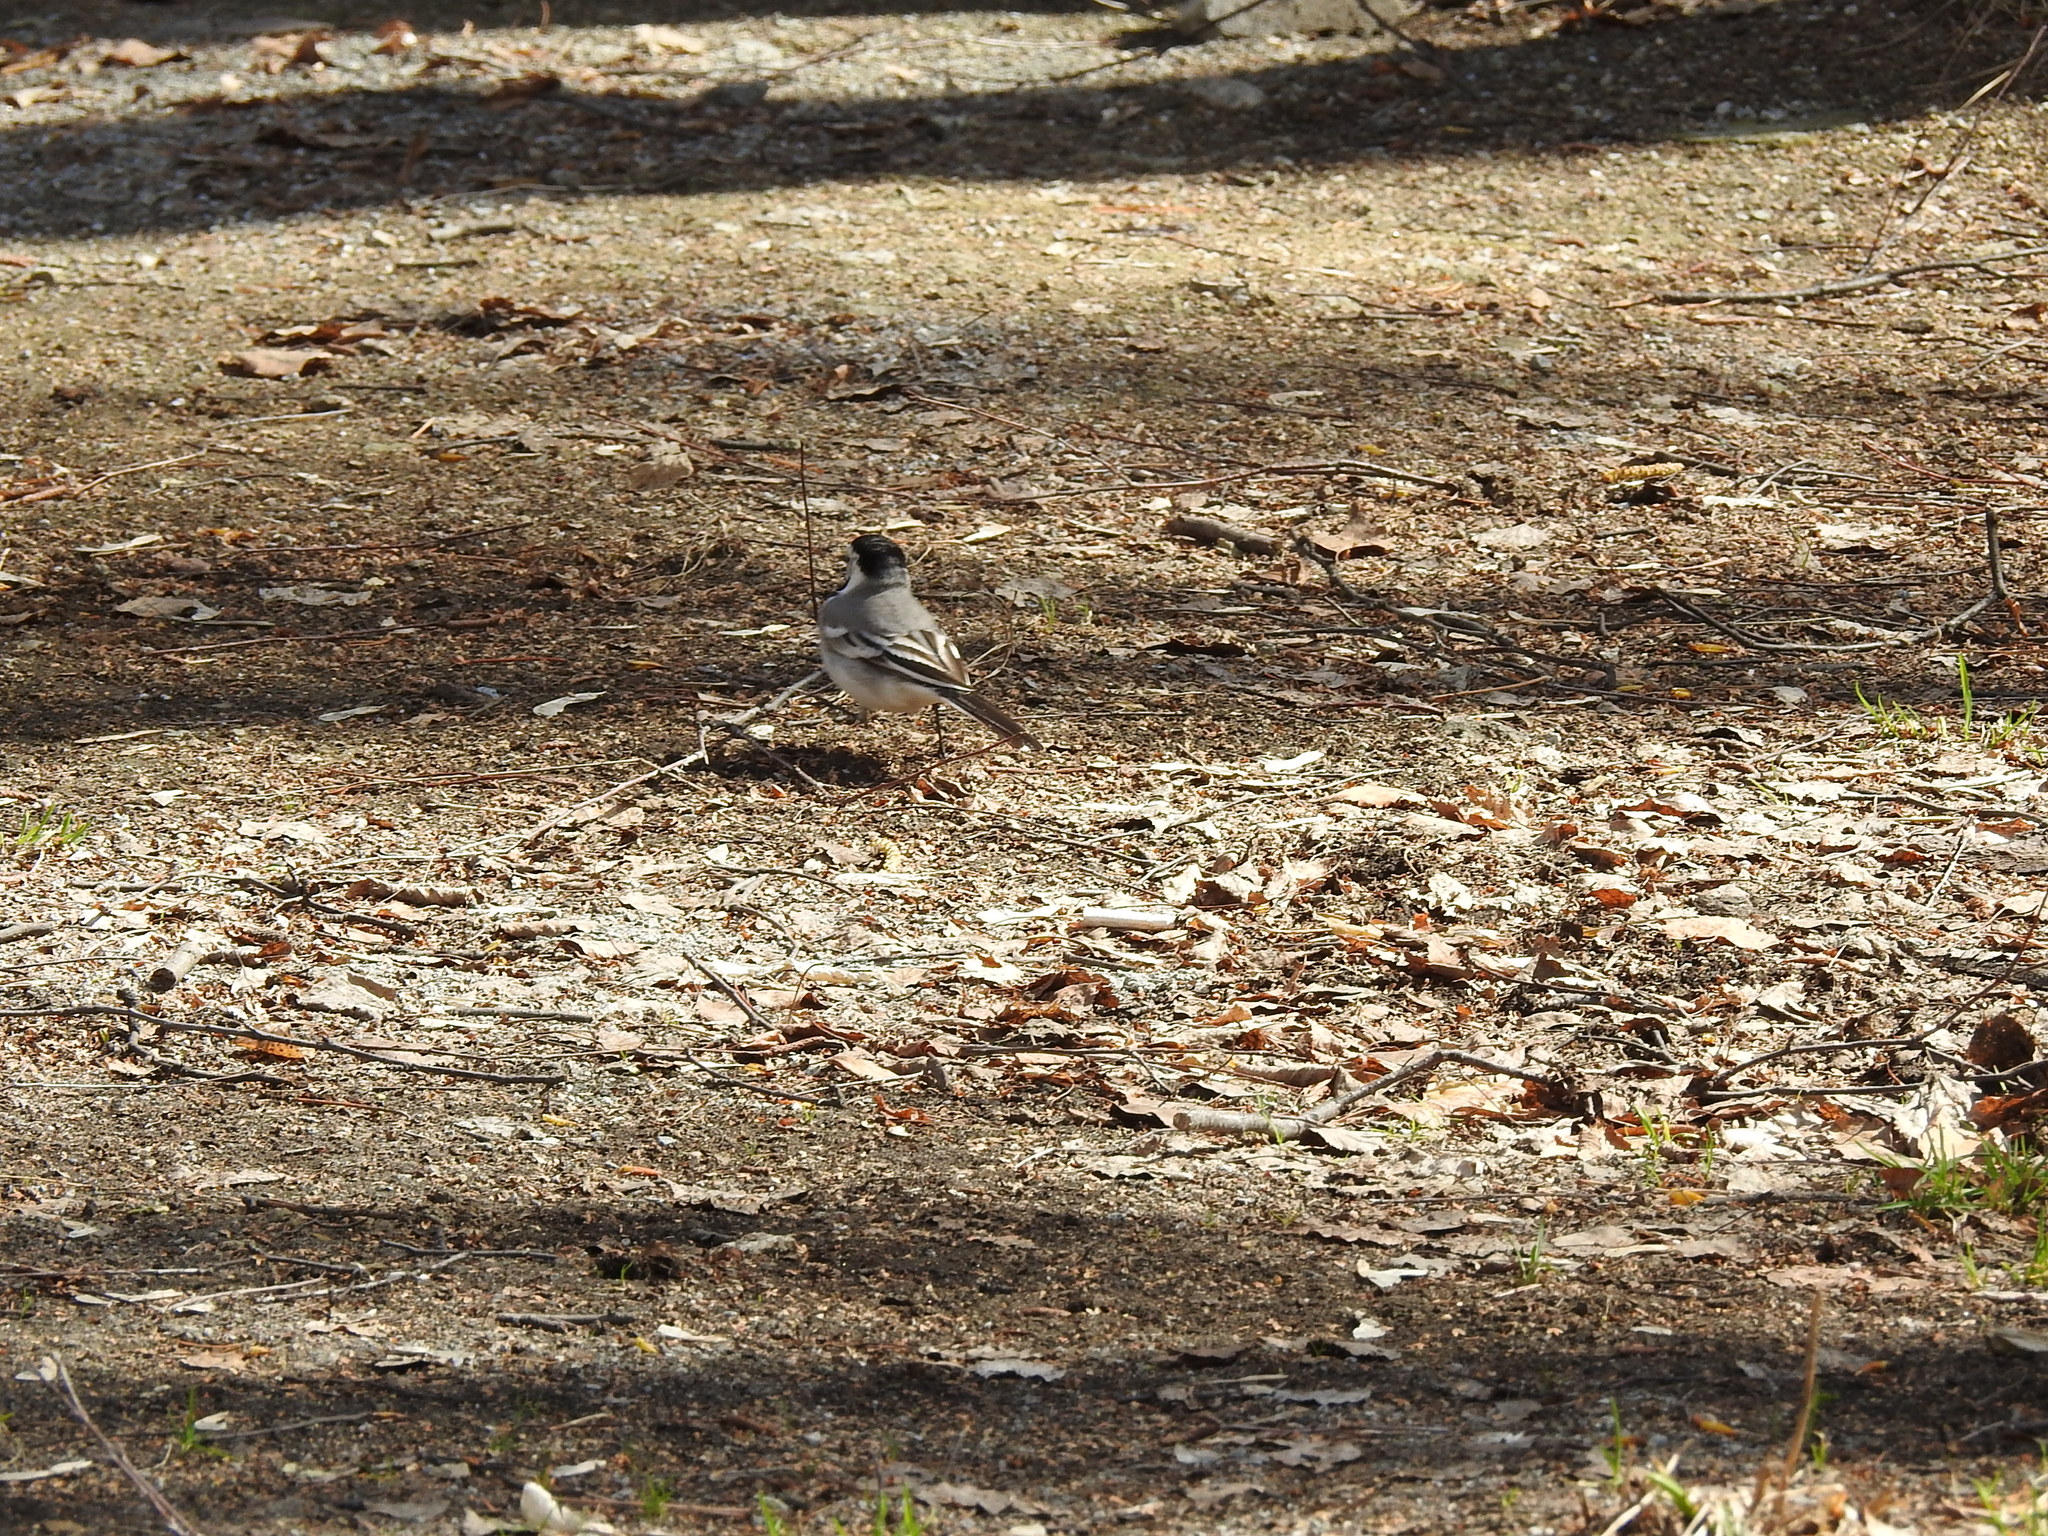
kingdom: Animalia
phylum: Chordata
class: Aves
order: Passeriformes
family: Motacillidae
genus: Motacilla
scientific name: Motacilla alba
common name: White wagtail
